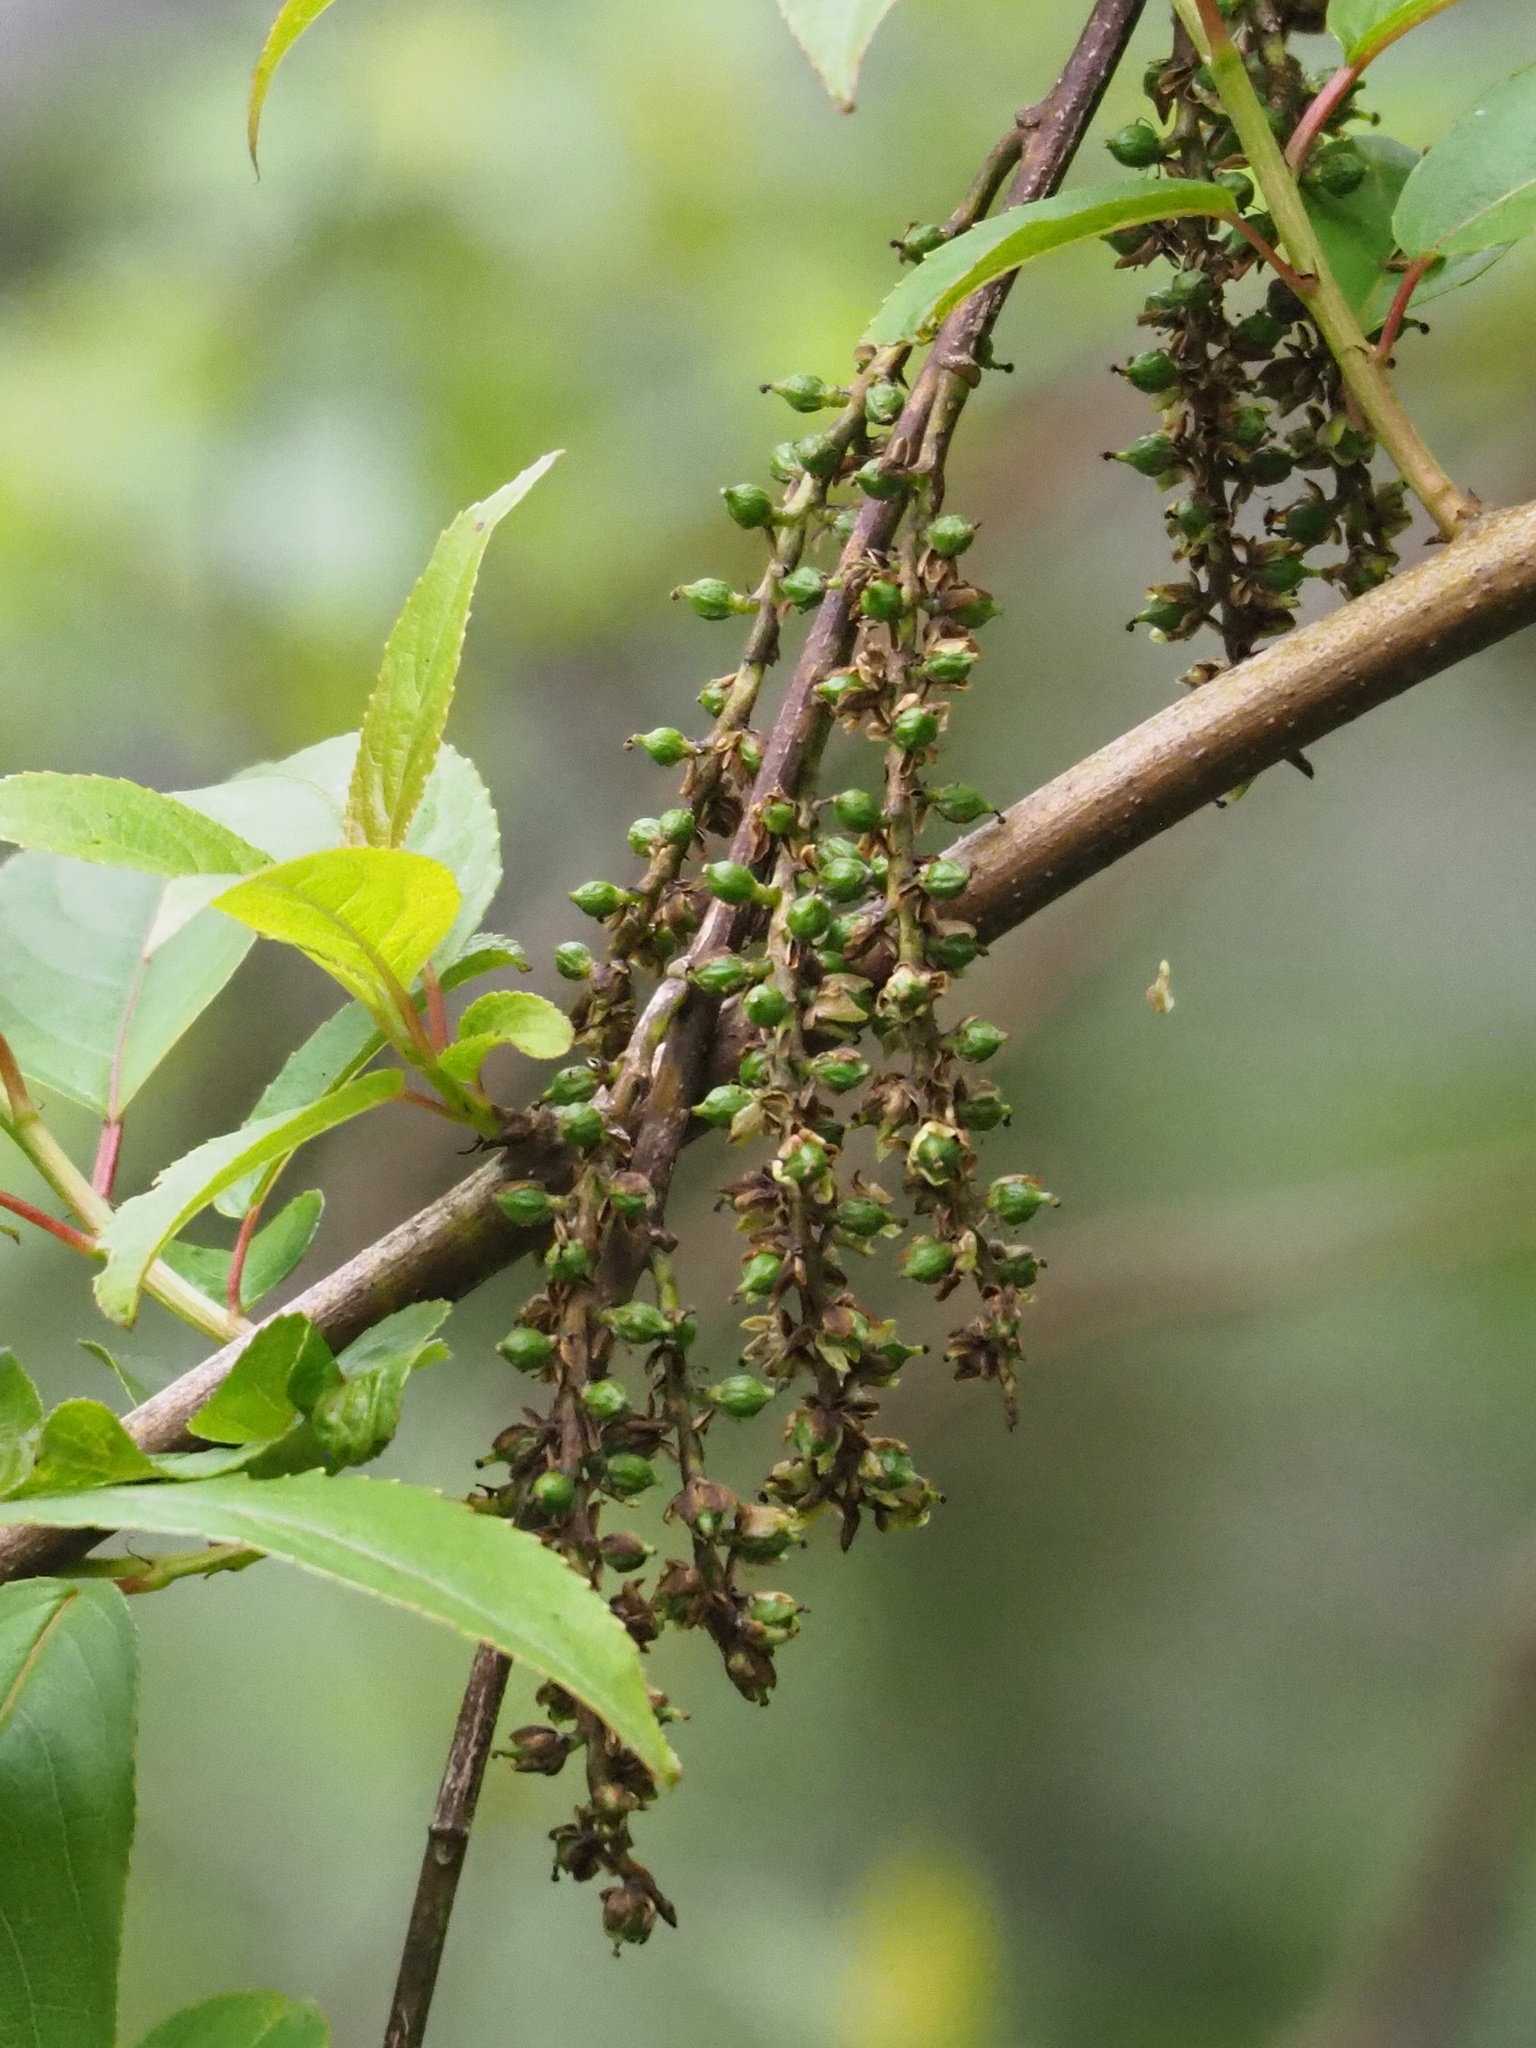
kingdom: Plantae
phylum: Tracheophyta
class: Magnoliopsida
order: Crossosomatales
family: Stachyuraceae
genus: Stachyurus
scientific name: Stachyurus himalaicus
